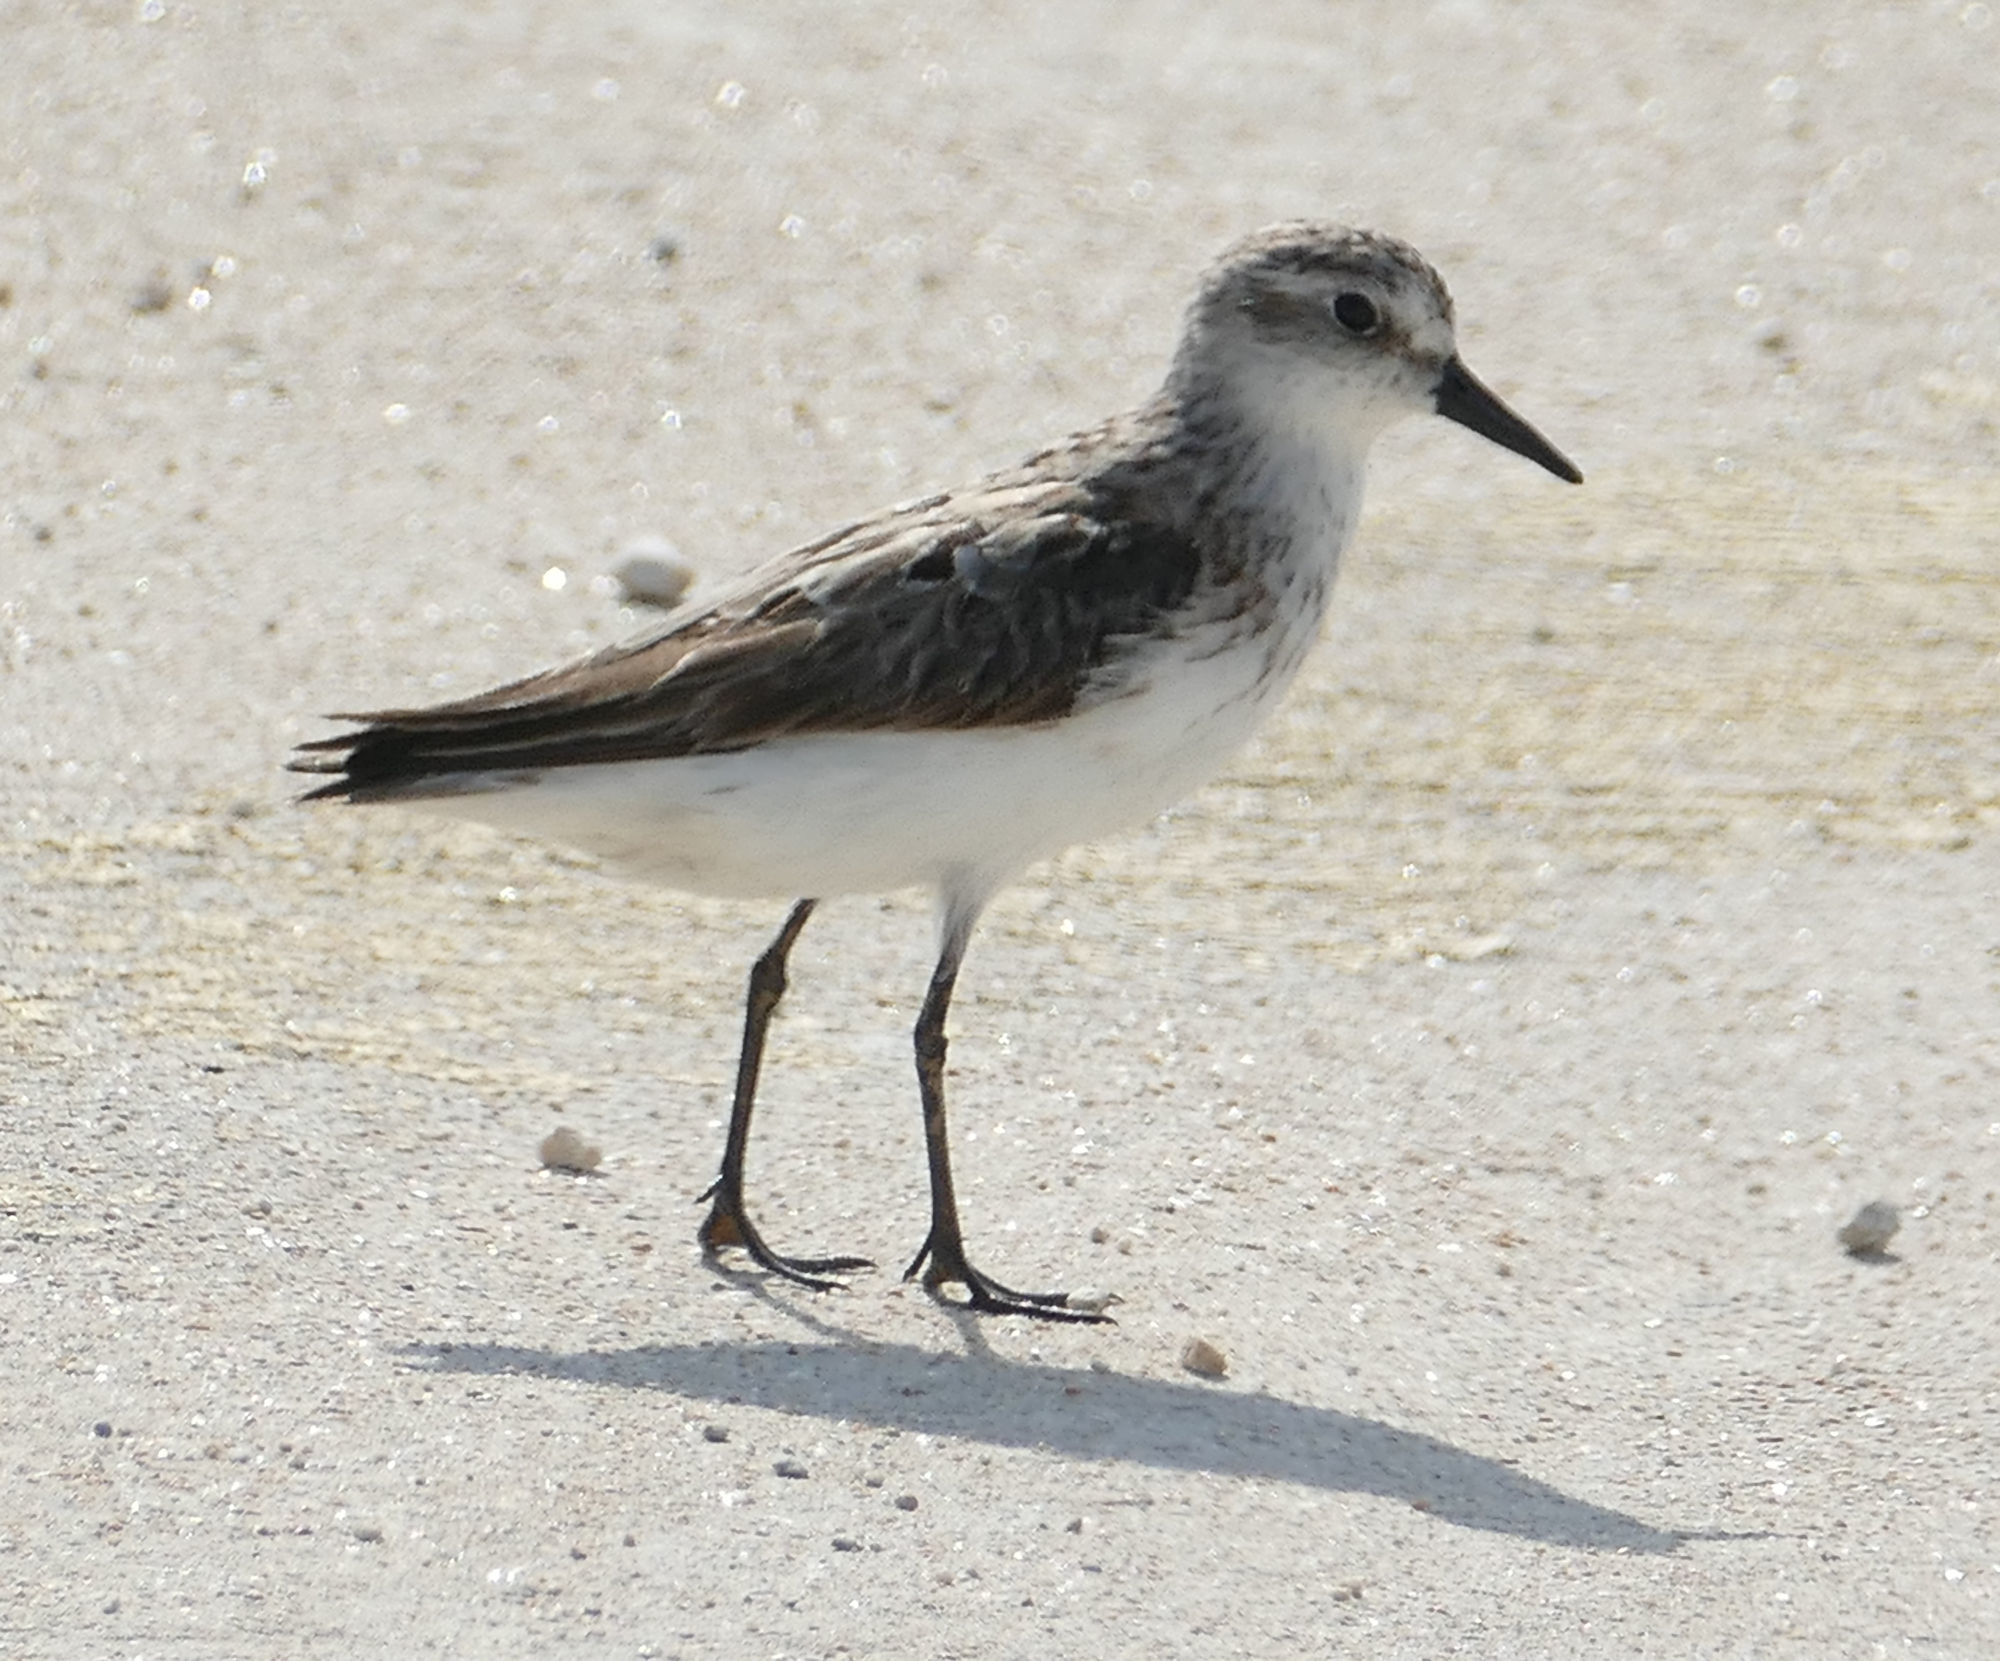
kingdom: Animalia
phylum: Chordata
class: Aves
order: Charadriiformes
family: Scolopacidae
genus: Calidris
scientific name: Calidris pusilla
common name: Semipalmated sandpiper
